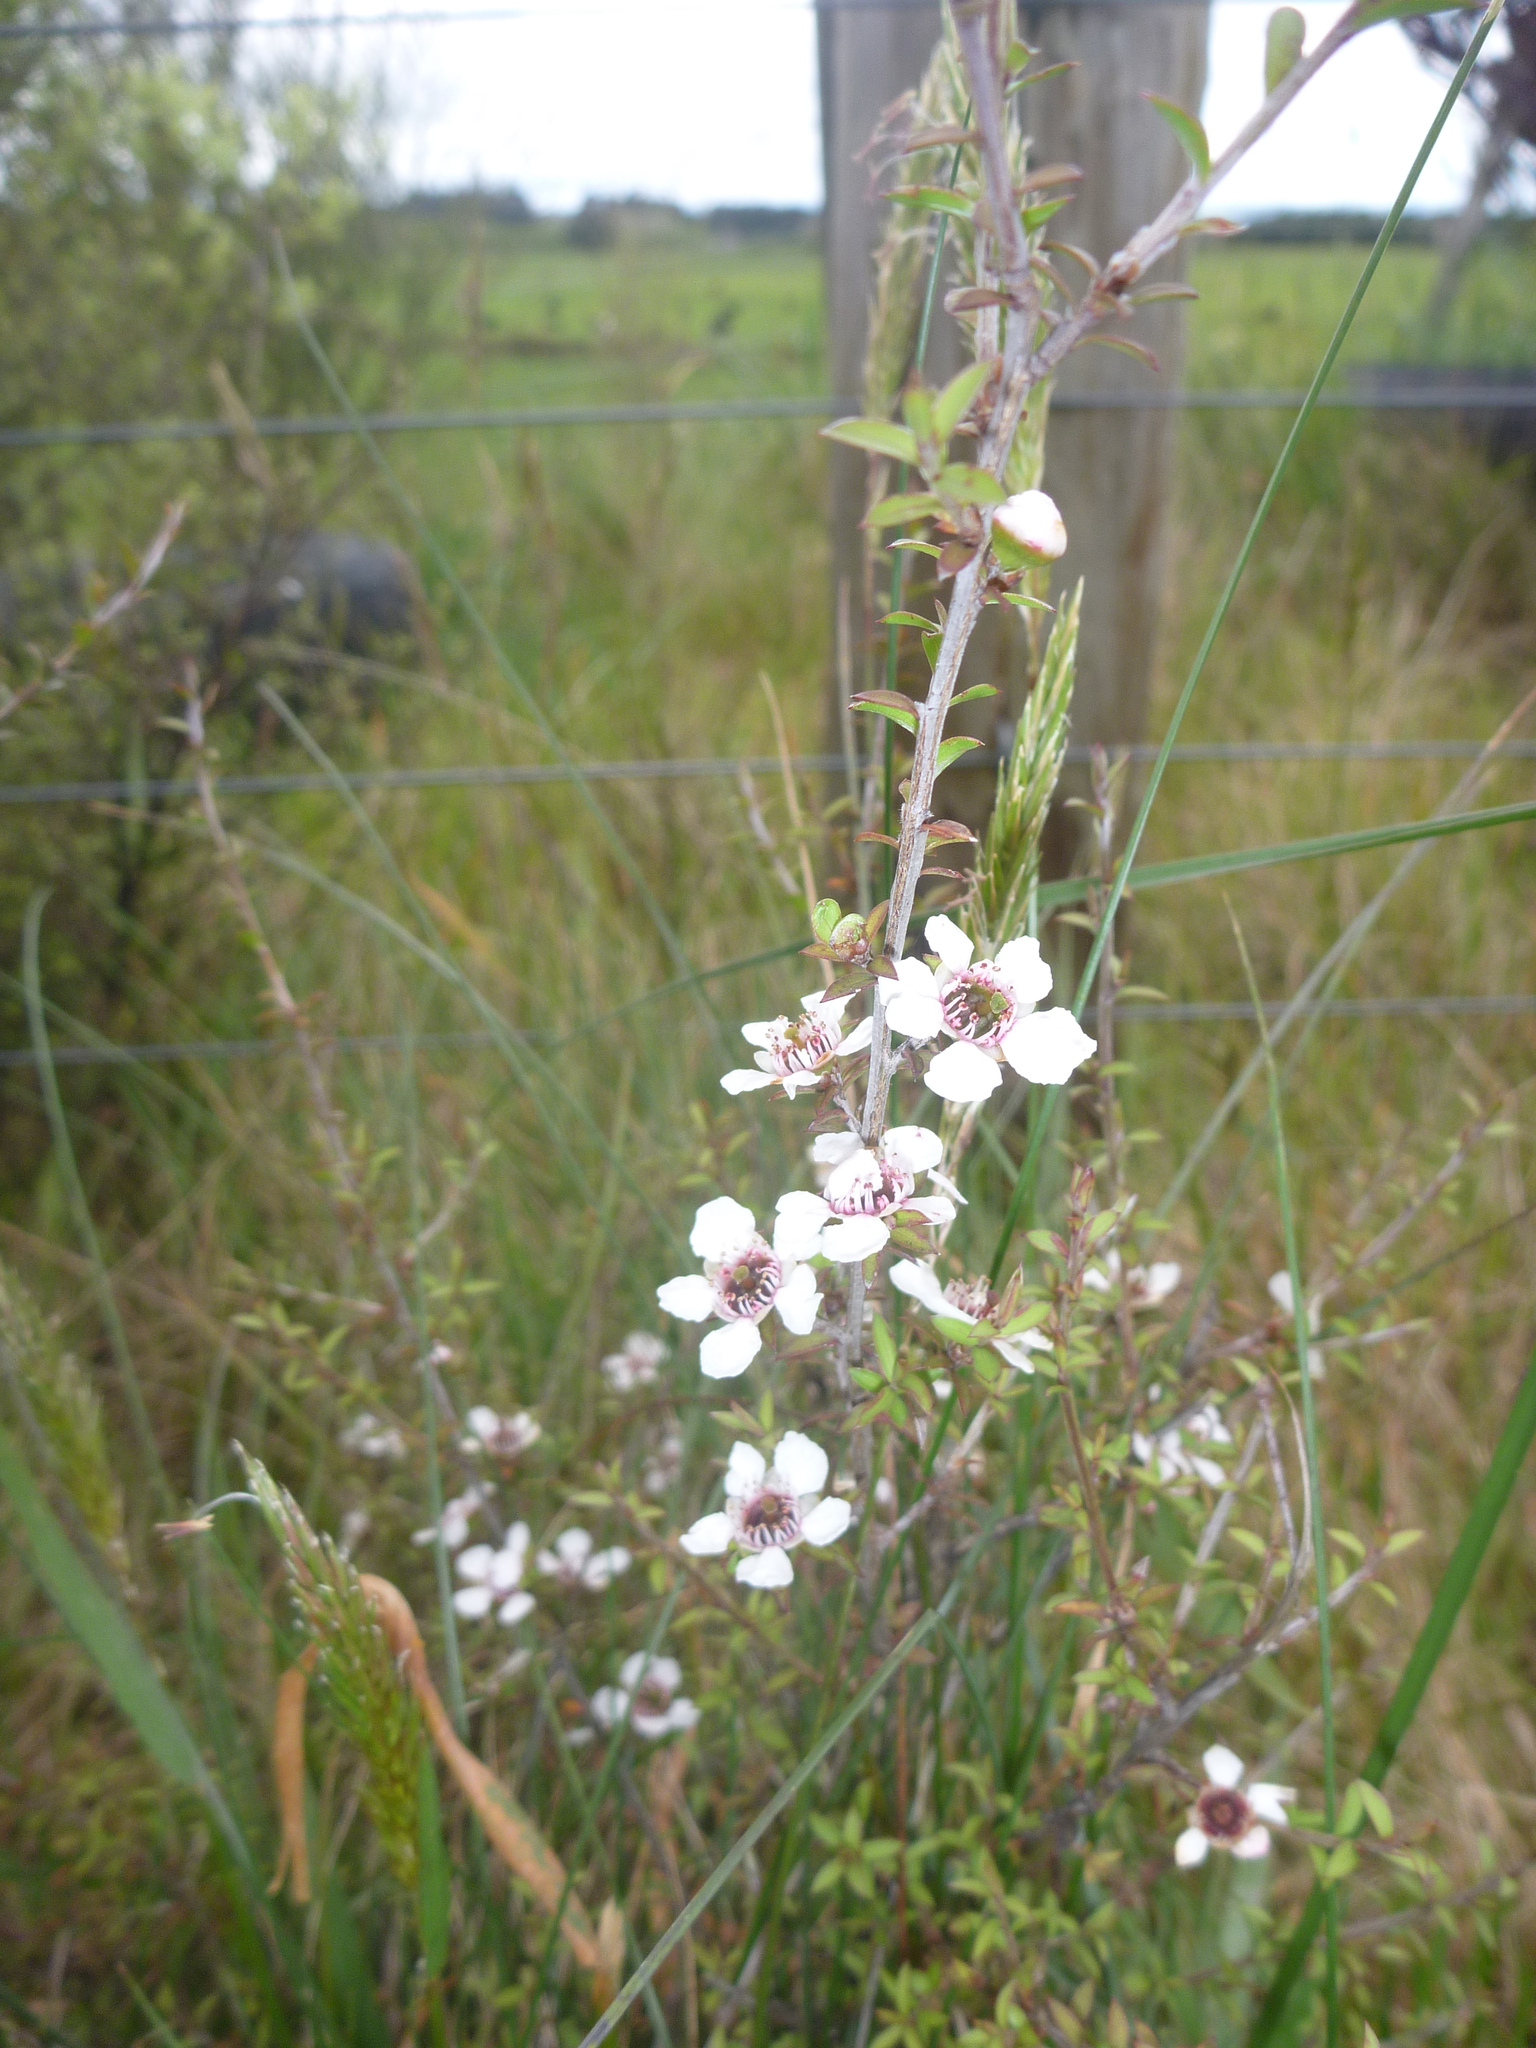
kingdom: Plantae
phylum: Tracheophyta
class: Magnoliopsida
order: Myrtales
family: Myrtaceae
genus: Leptospermum
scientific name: Leptospermum scoparium
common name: Broom tea-tree
